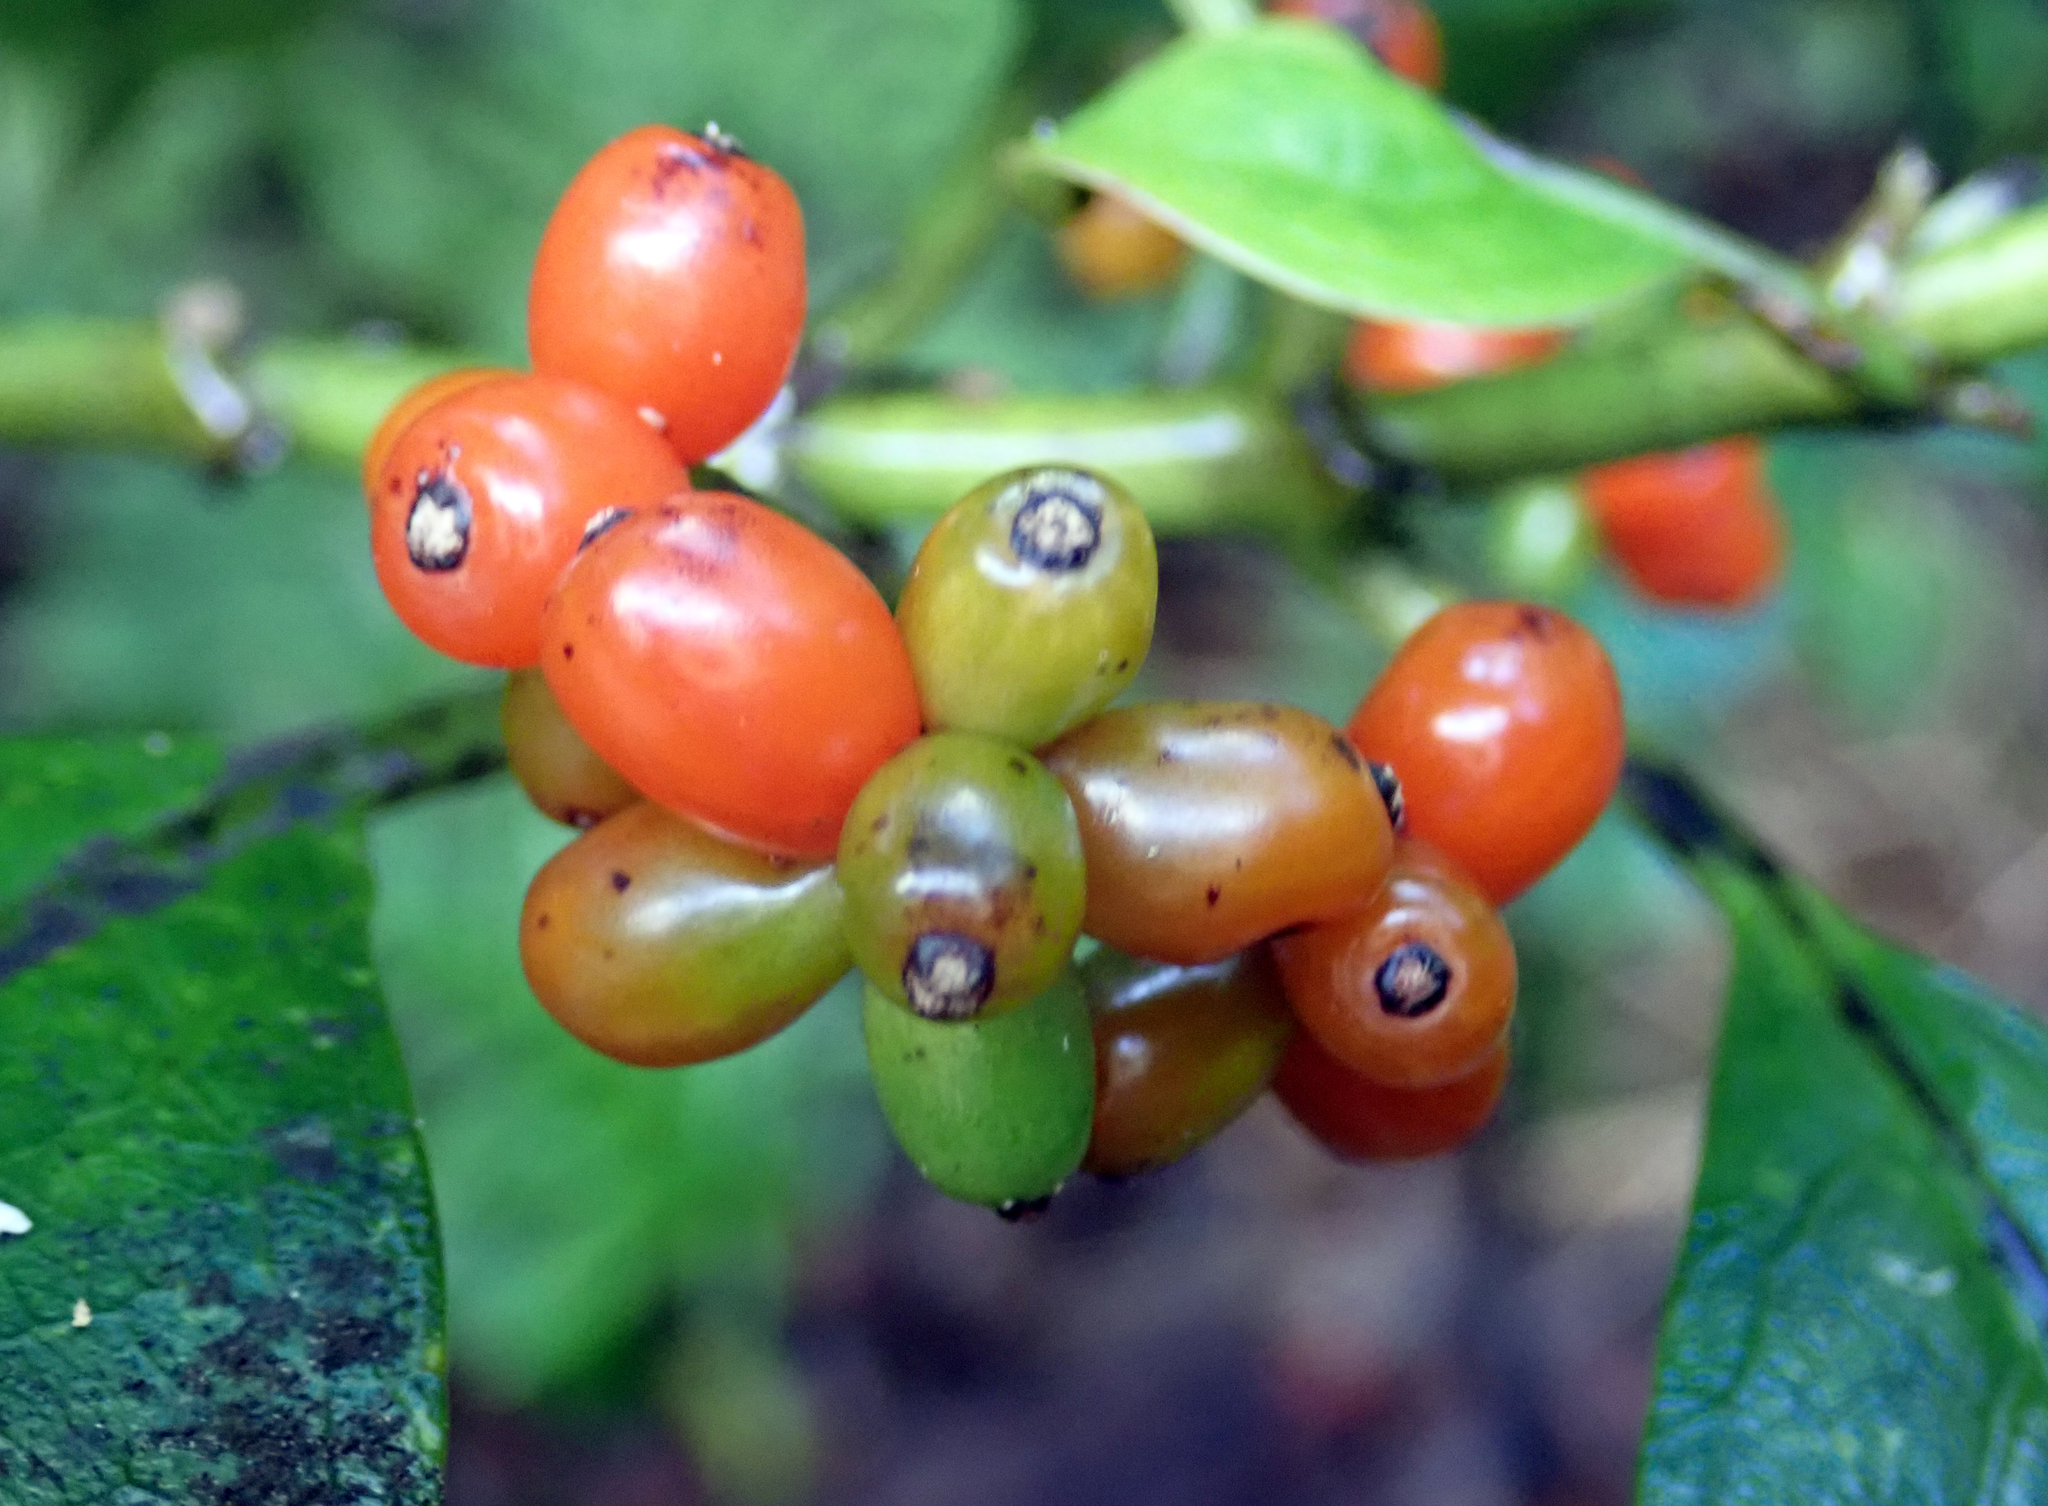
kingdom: Plantae
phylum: Tracheophyta
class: Magnoliopsida
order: Gentianales
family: Rubiaceae
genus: Coprosma
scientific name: Coprosma autumnalis
